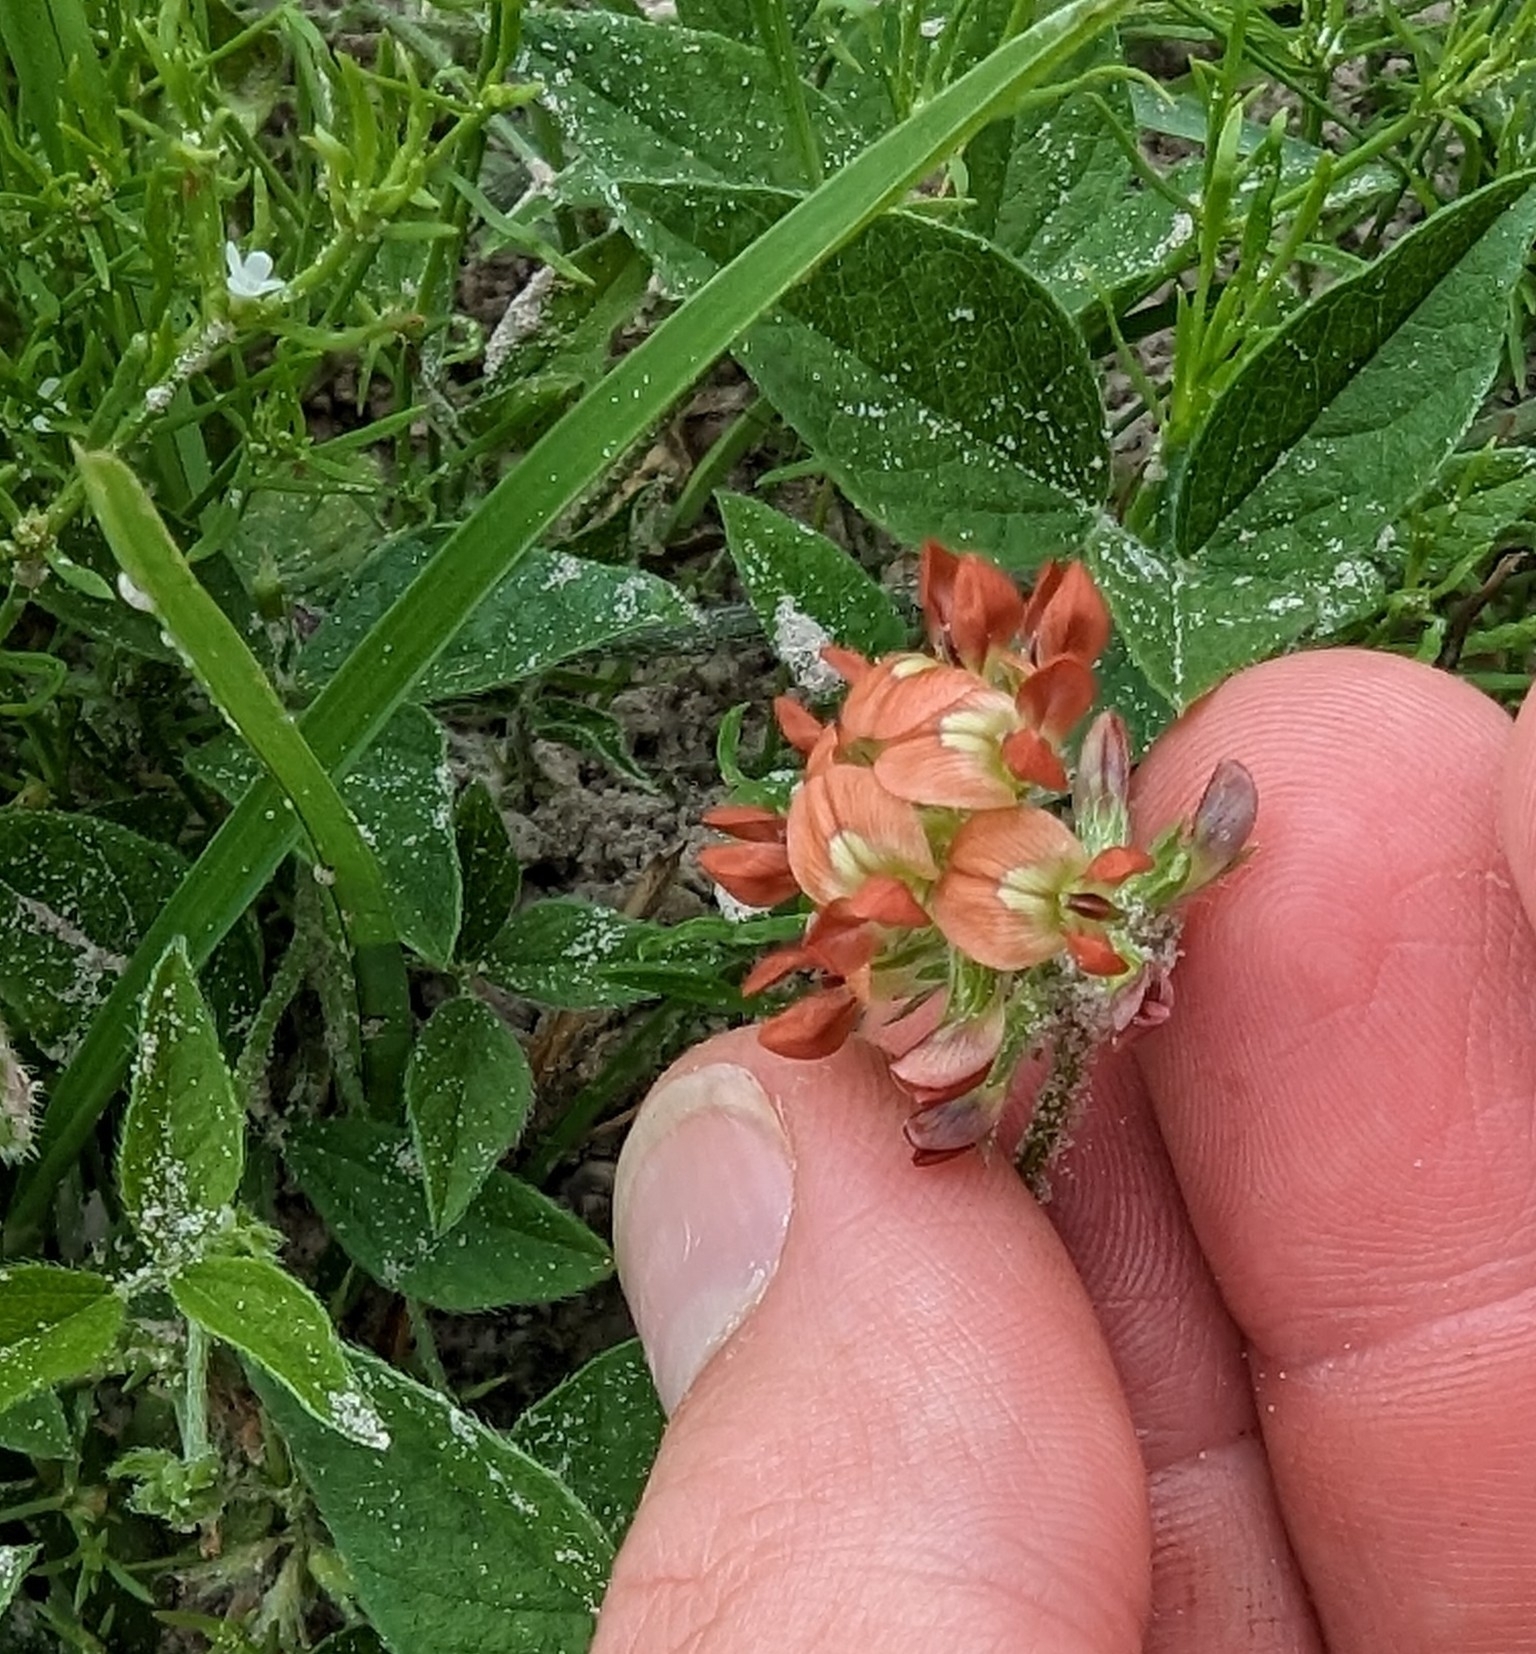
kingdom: Plantae
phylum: Tracheophyta
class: Magnoliopsida
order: Fabales
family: Fabaceae
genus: Pediomelum
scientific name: Pediomelum rhombifolium
